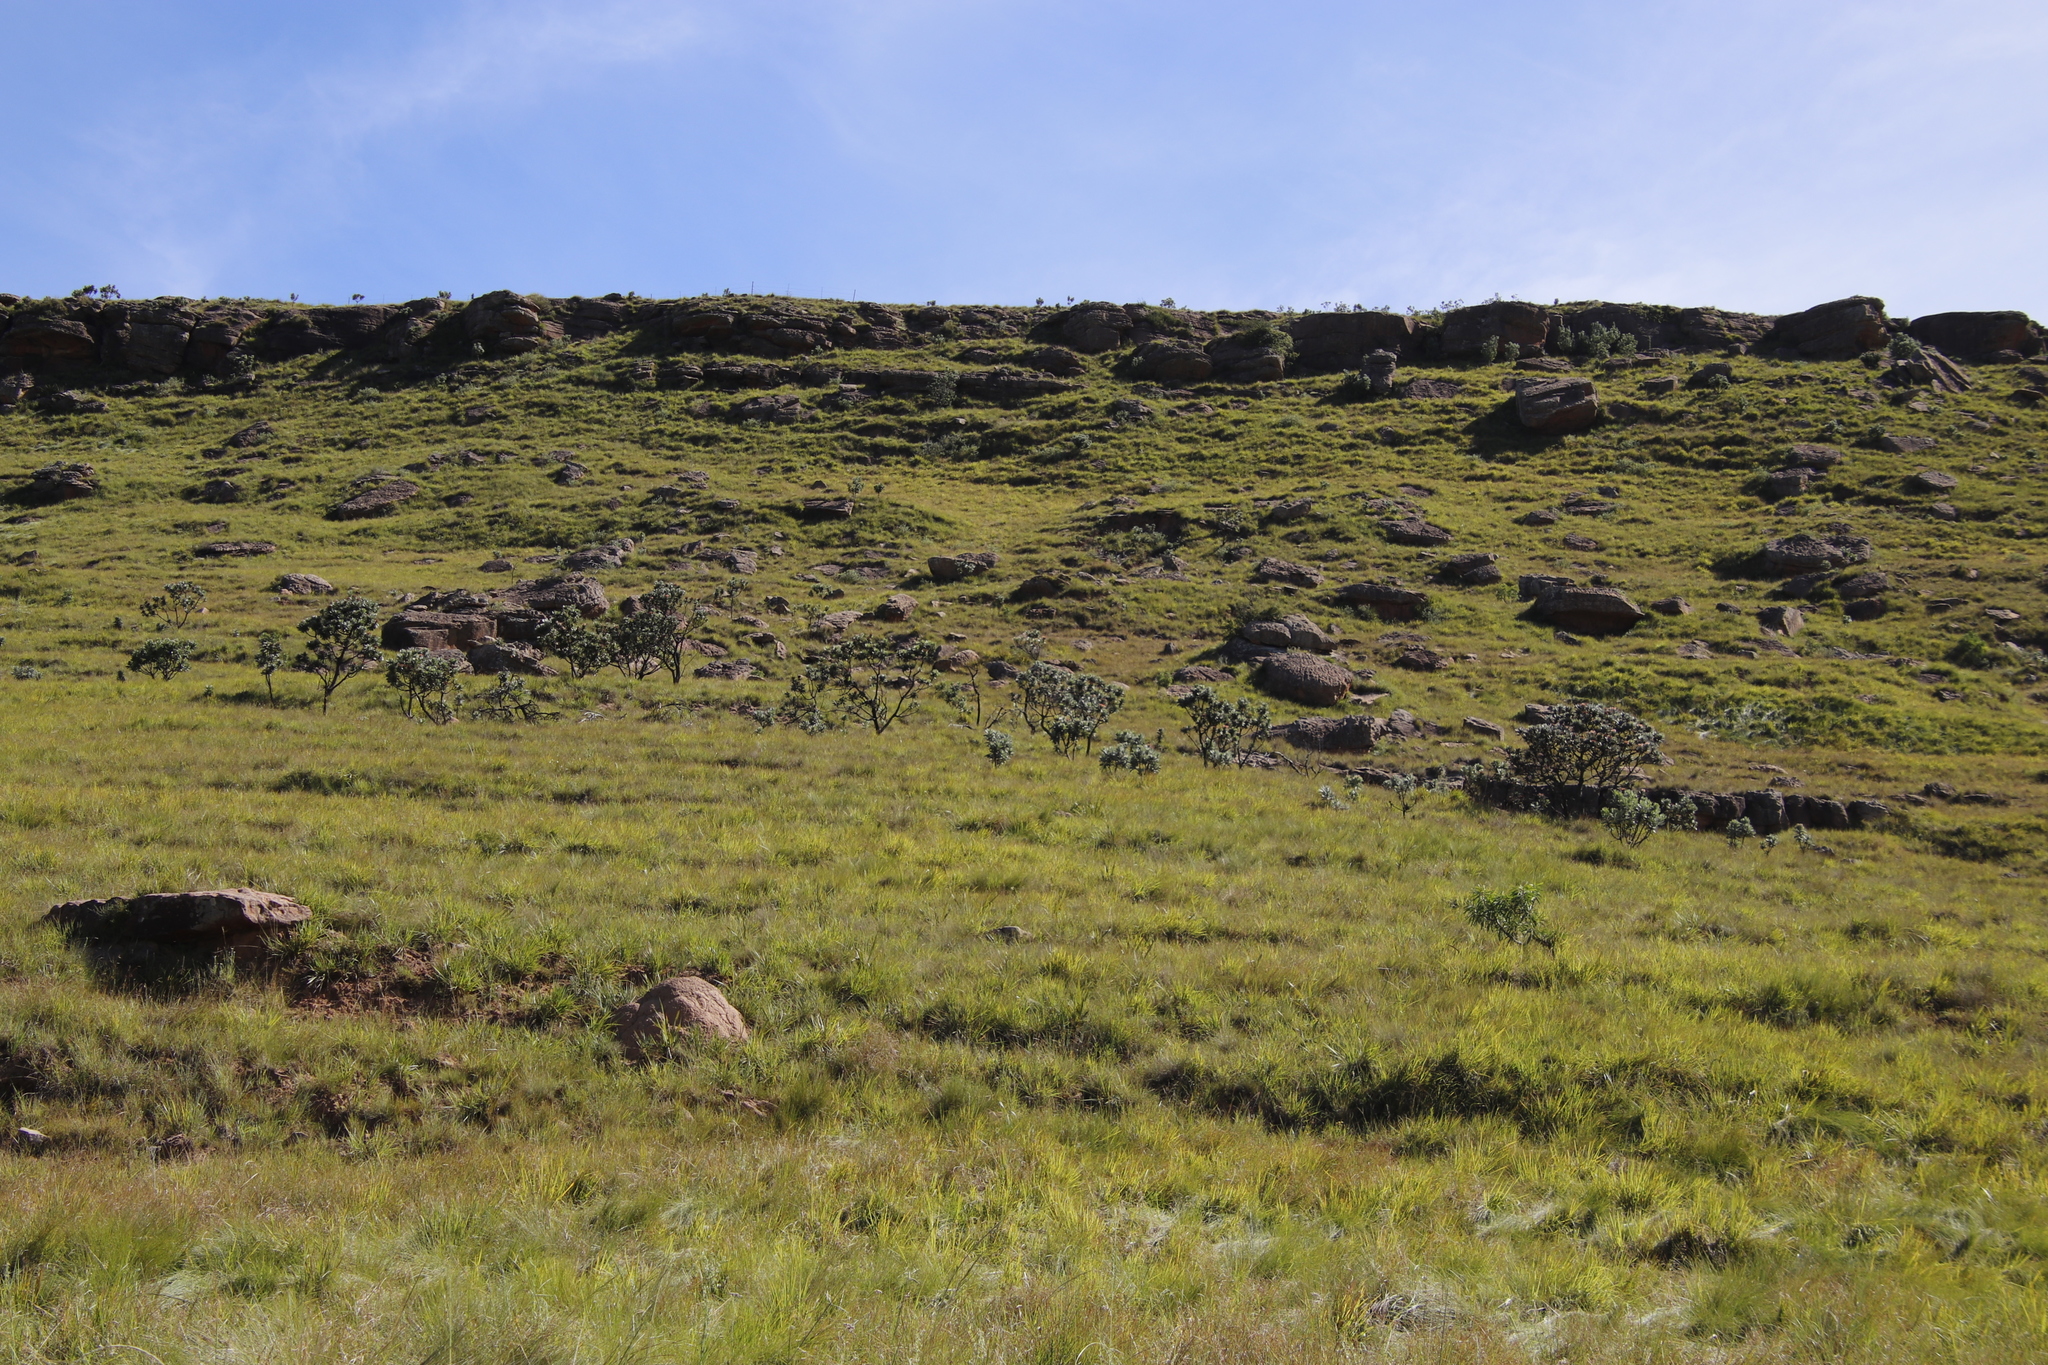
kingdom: Plantae
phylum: Tracheophyta
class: Magnoliopsida
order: Proteales
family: Proteaceae
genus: Protea
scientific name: Protea roupelliae
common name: Silver sugarbush
